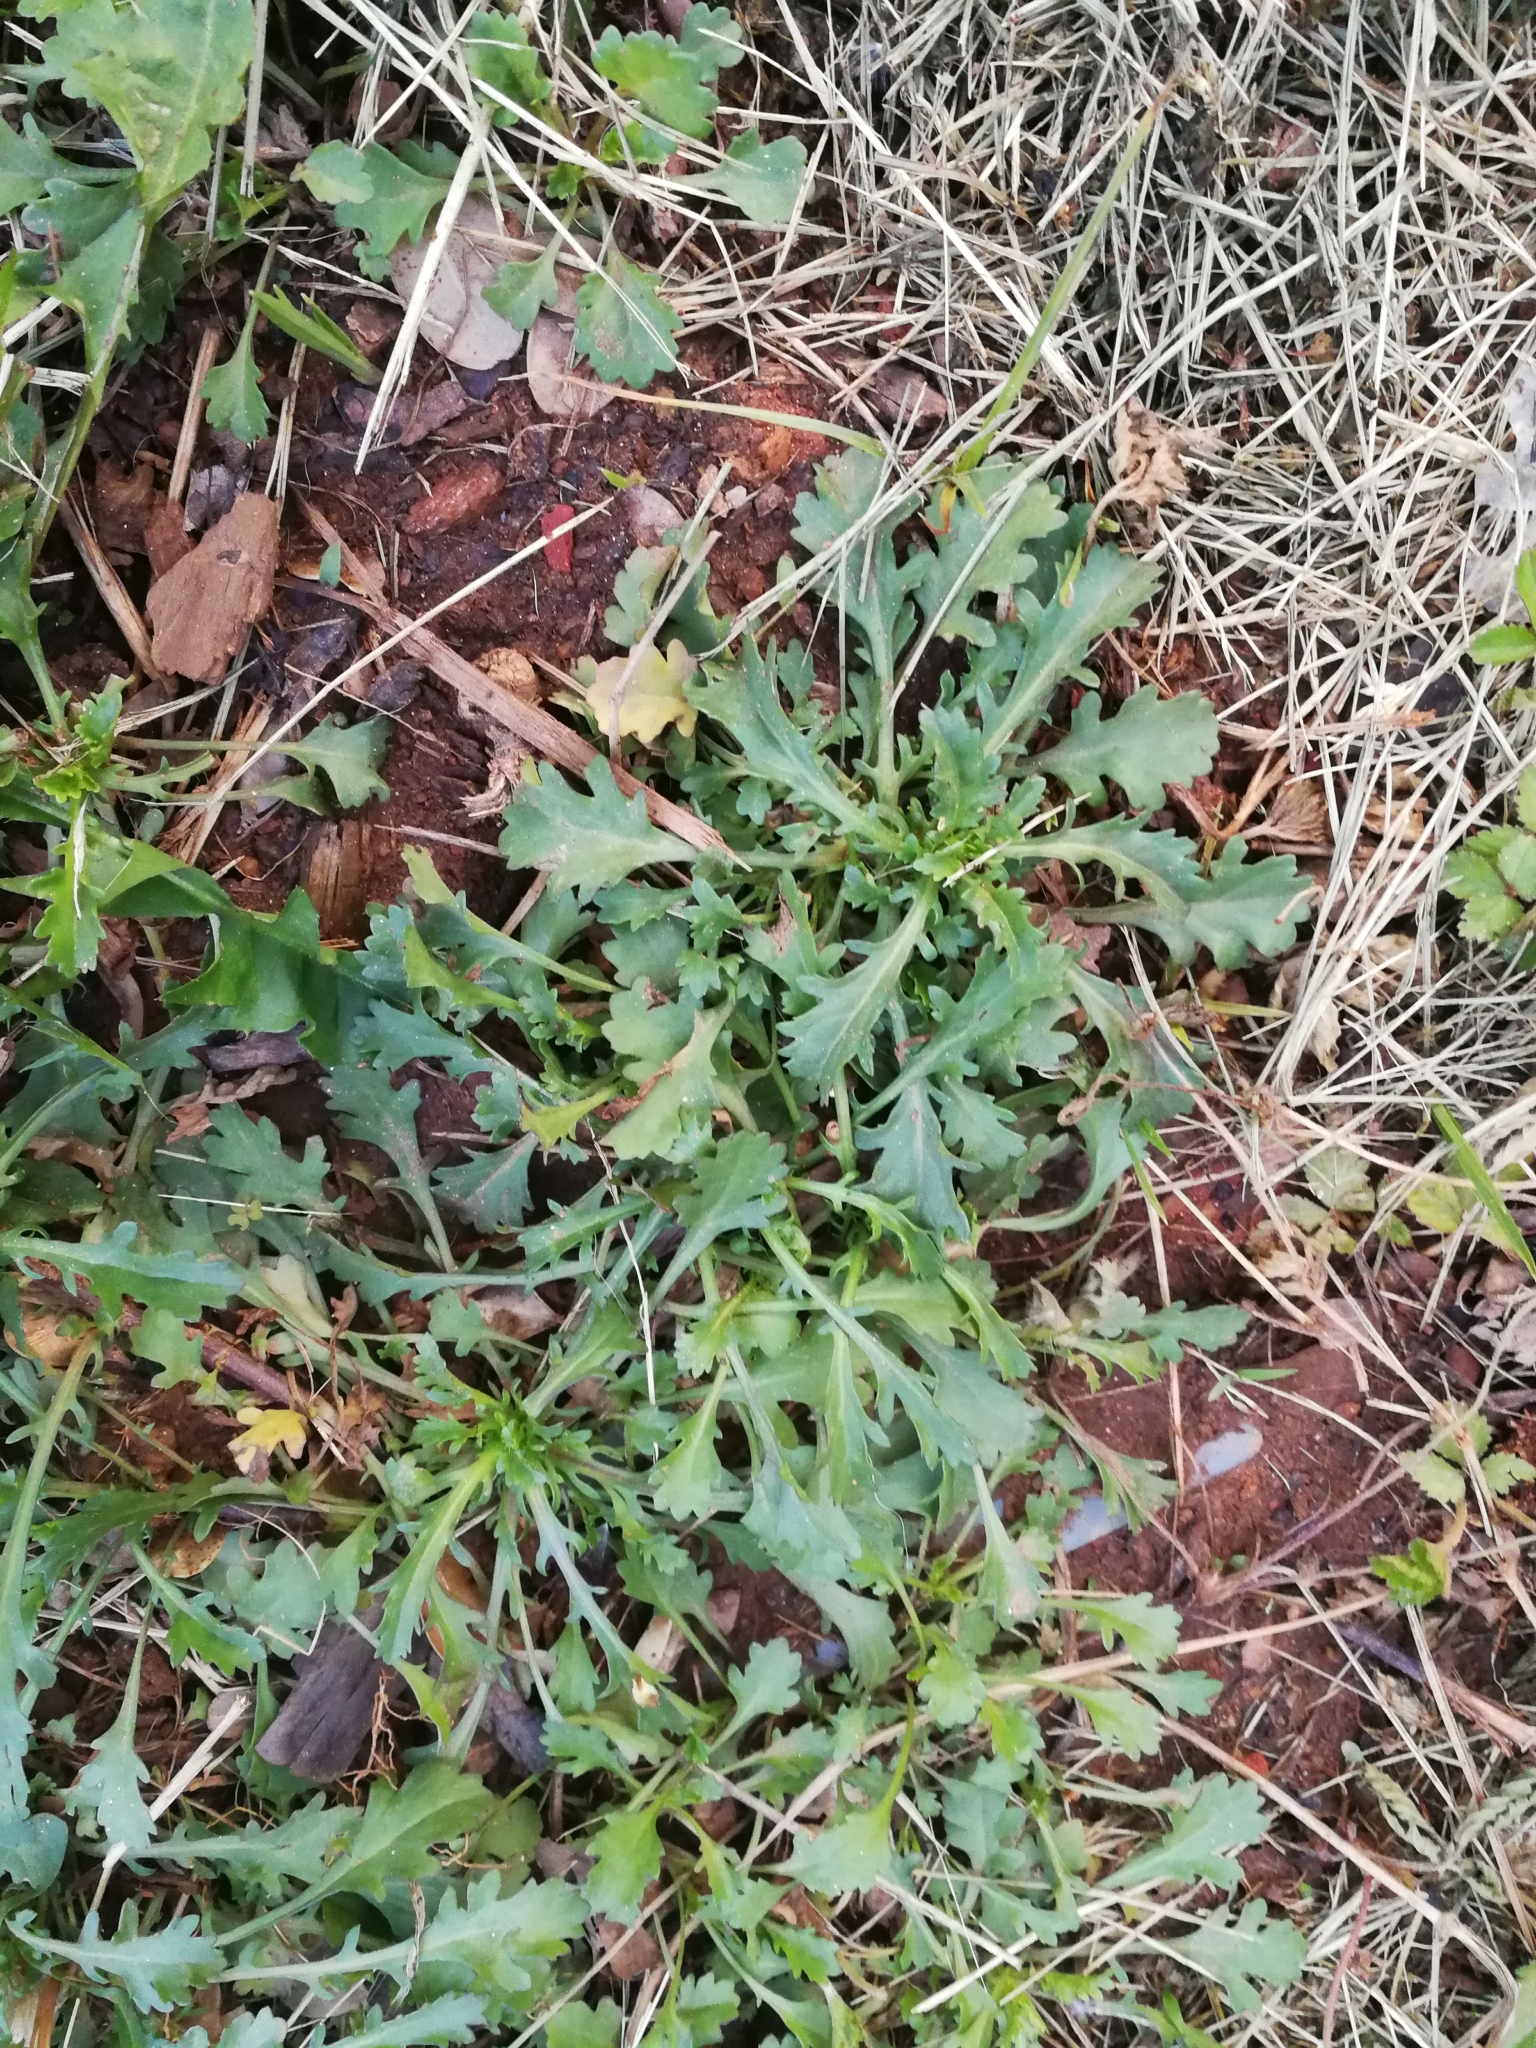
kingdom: Plantae
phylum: Tracheophyta
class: Magnoliopsida
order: Asterales
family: Asteraceae
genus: Leucanthemum
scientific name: Leucanthemum vulgare
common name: Oxeye daisy
